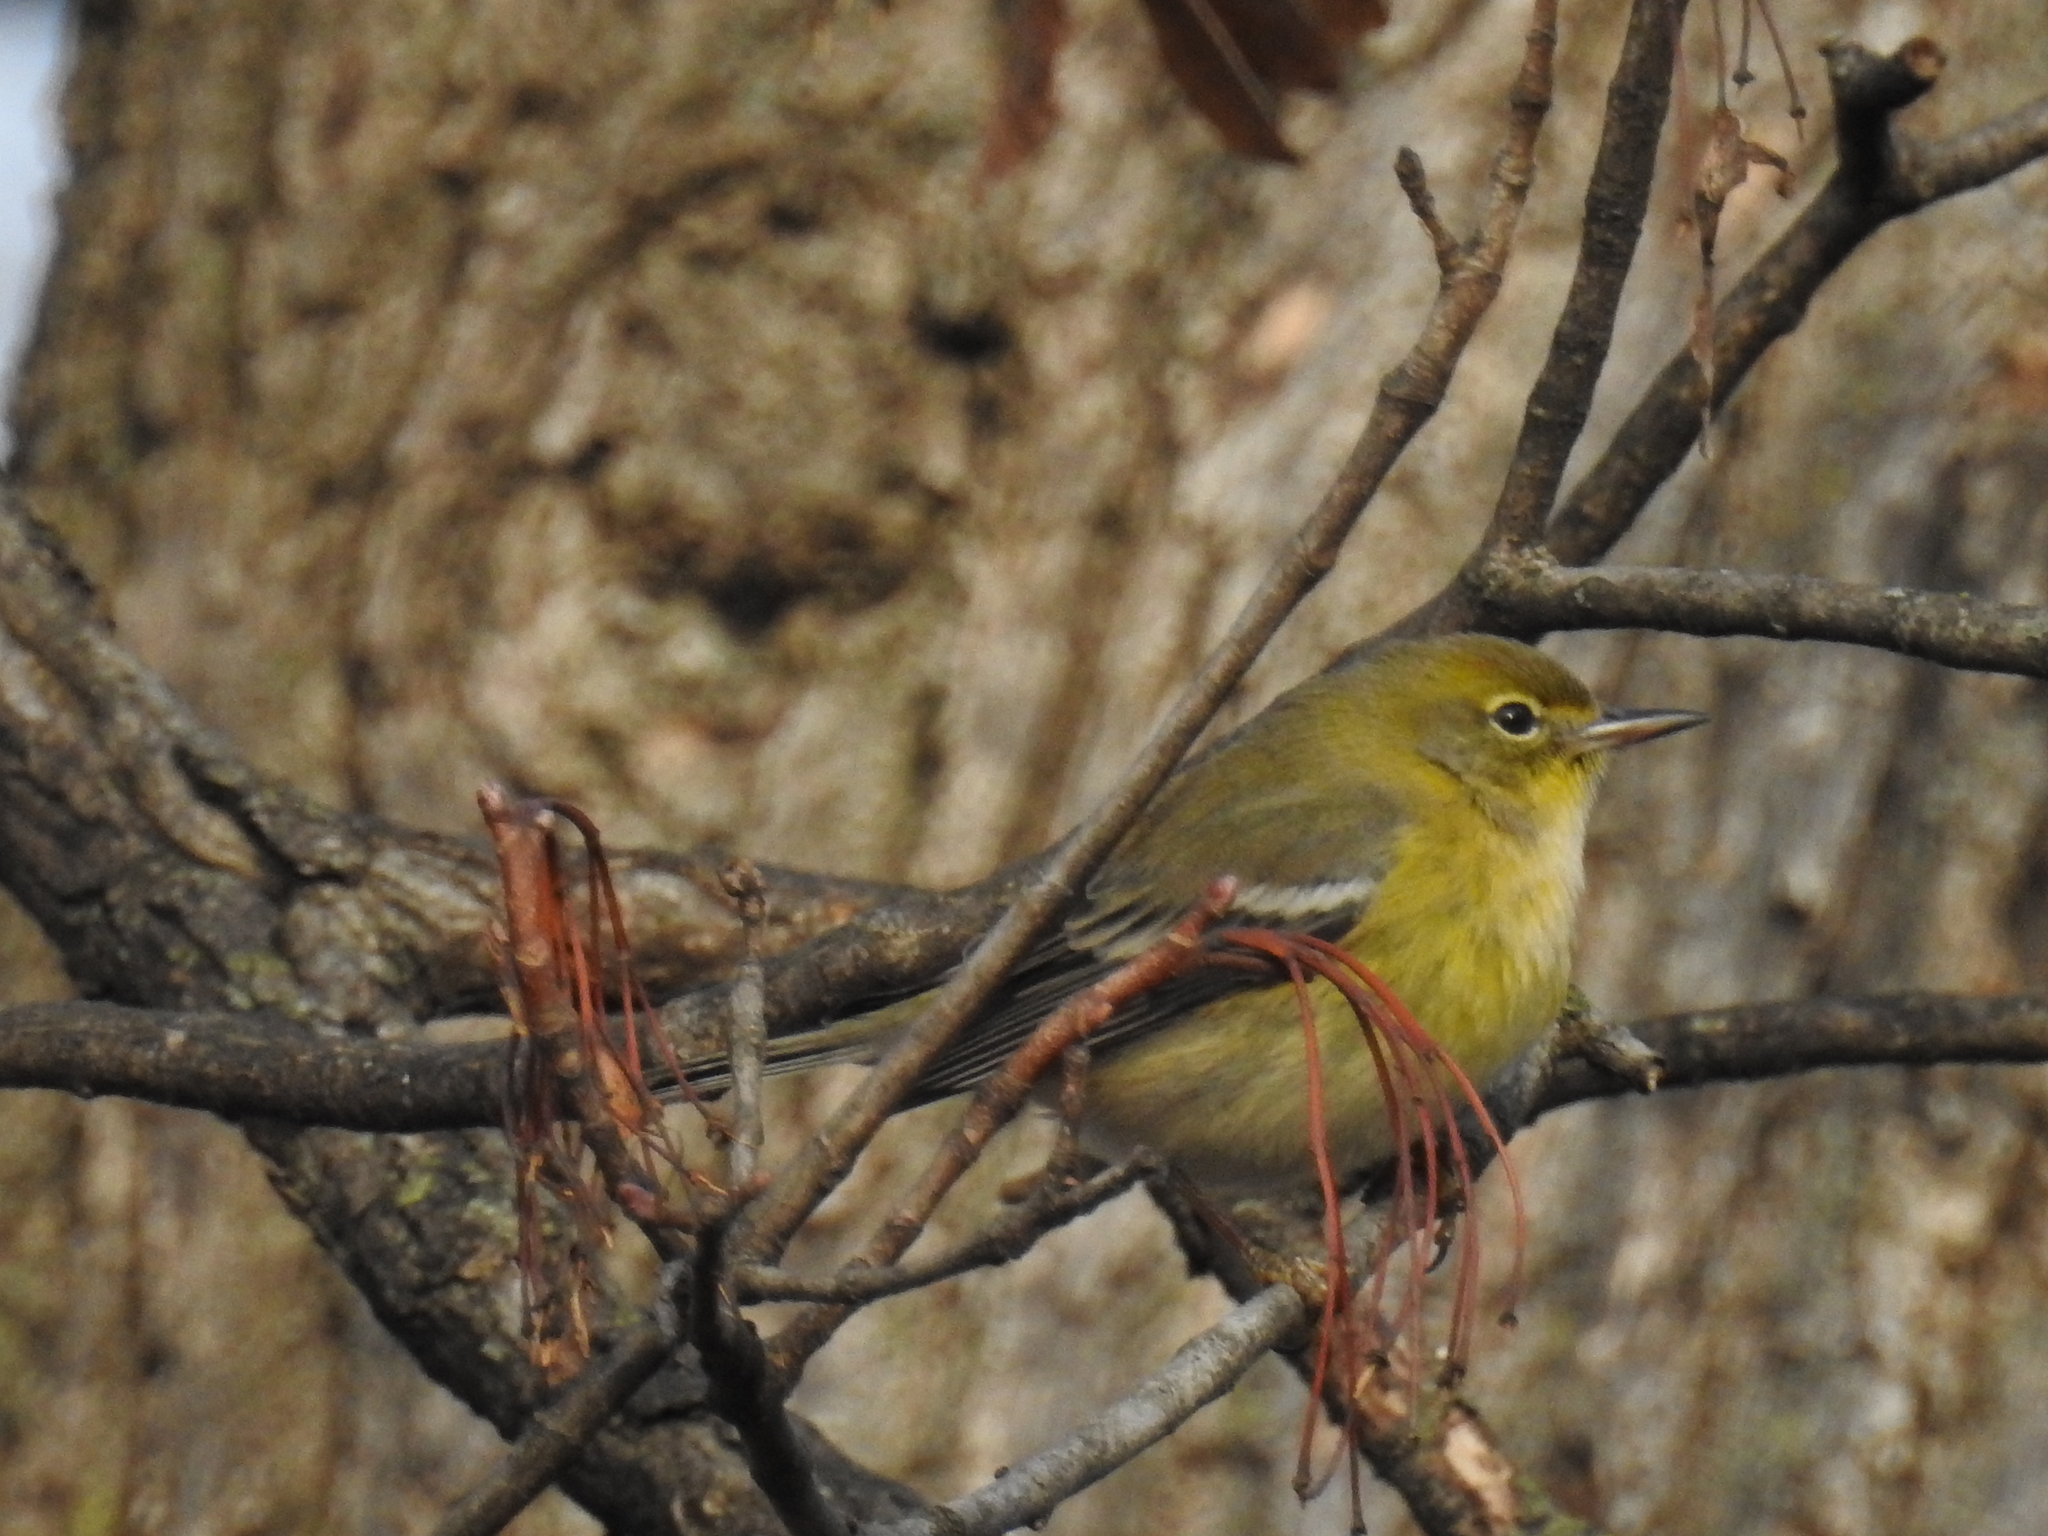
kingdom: Animalia
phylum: Chordata
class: Aves
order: Passeriformes
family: Parulidae
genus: Setophaga
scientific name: Setophaga pinus
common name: Pine warbler
